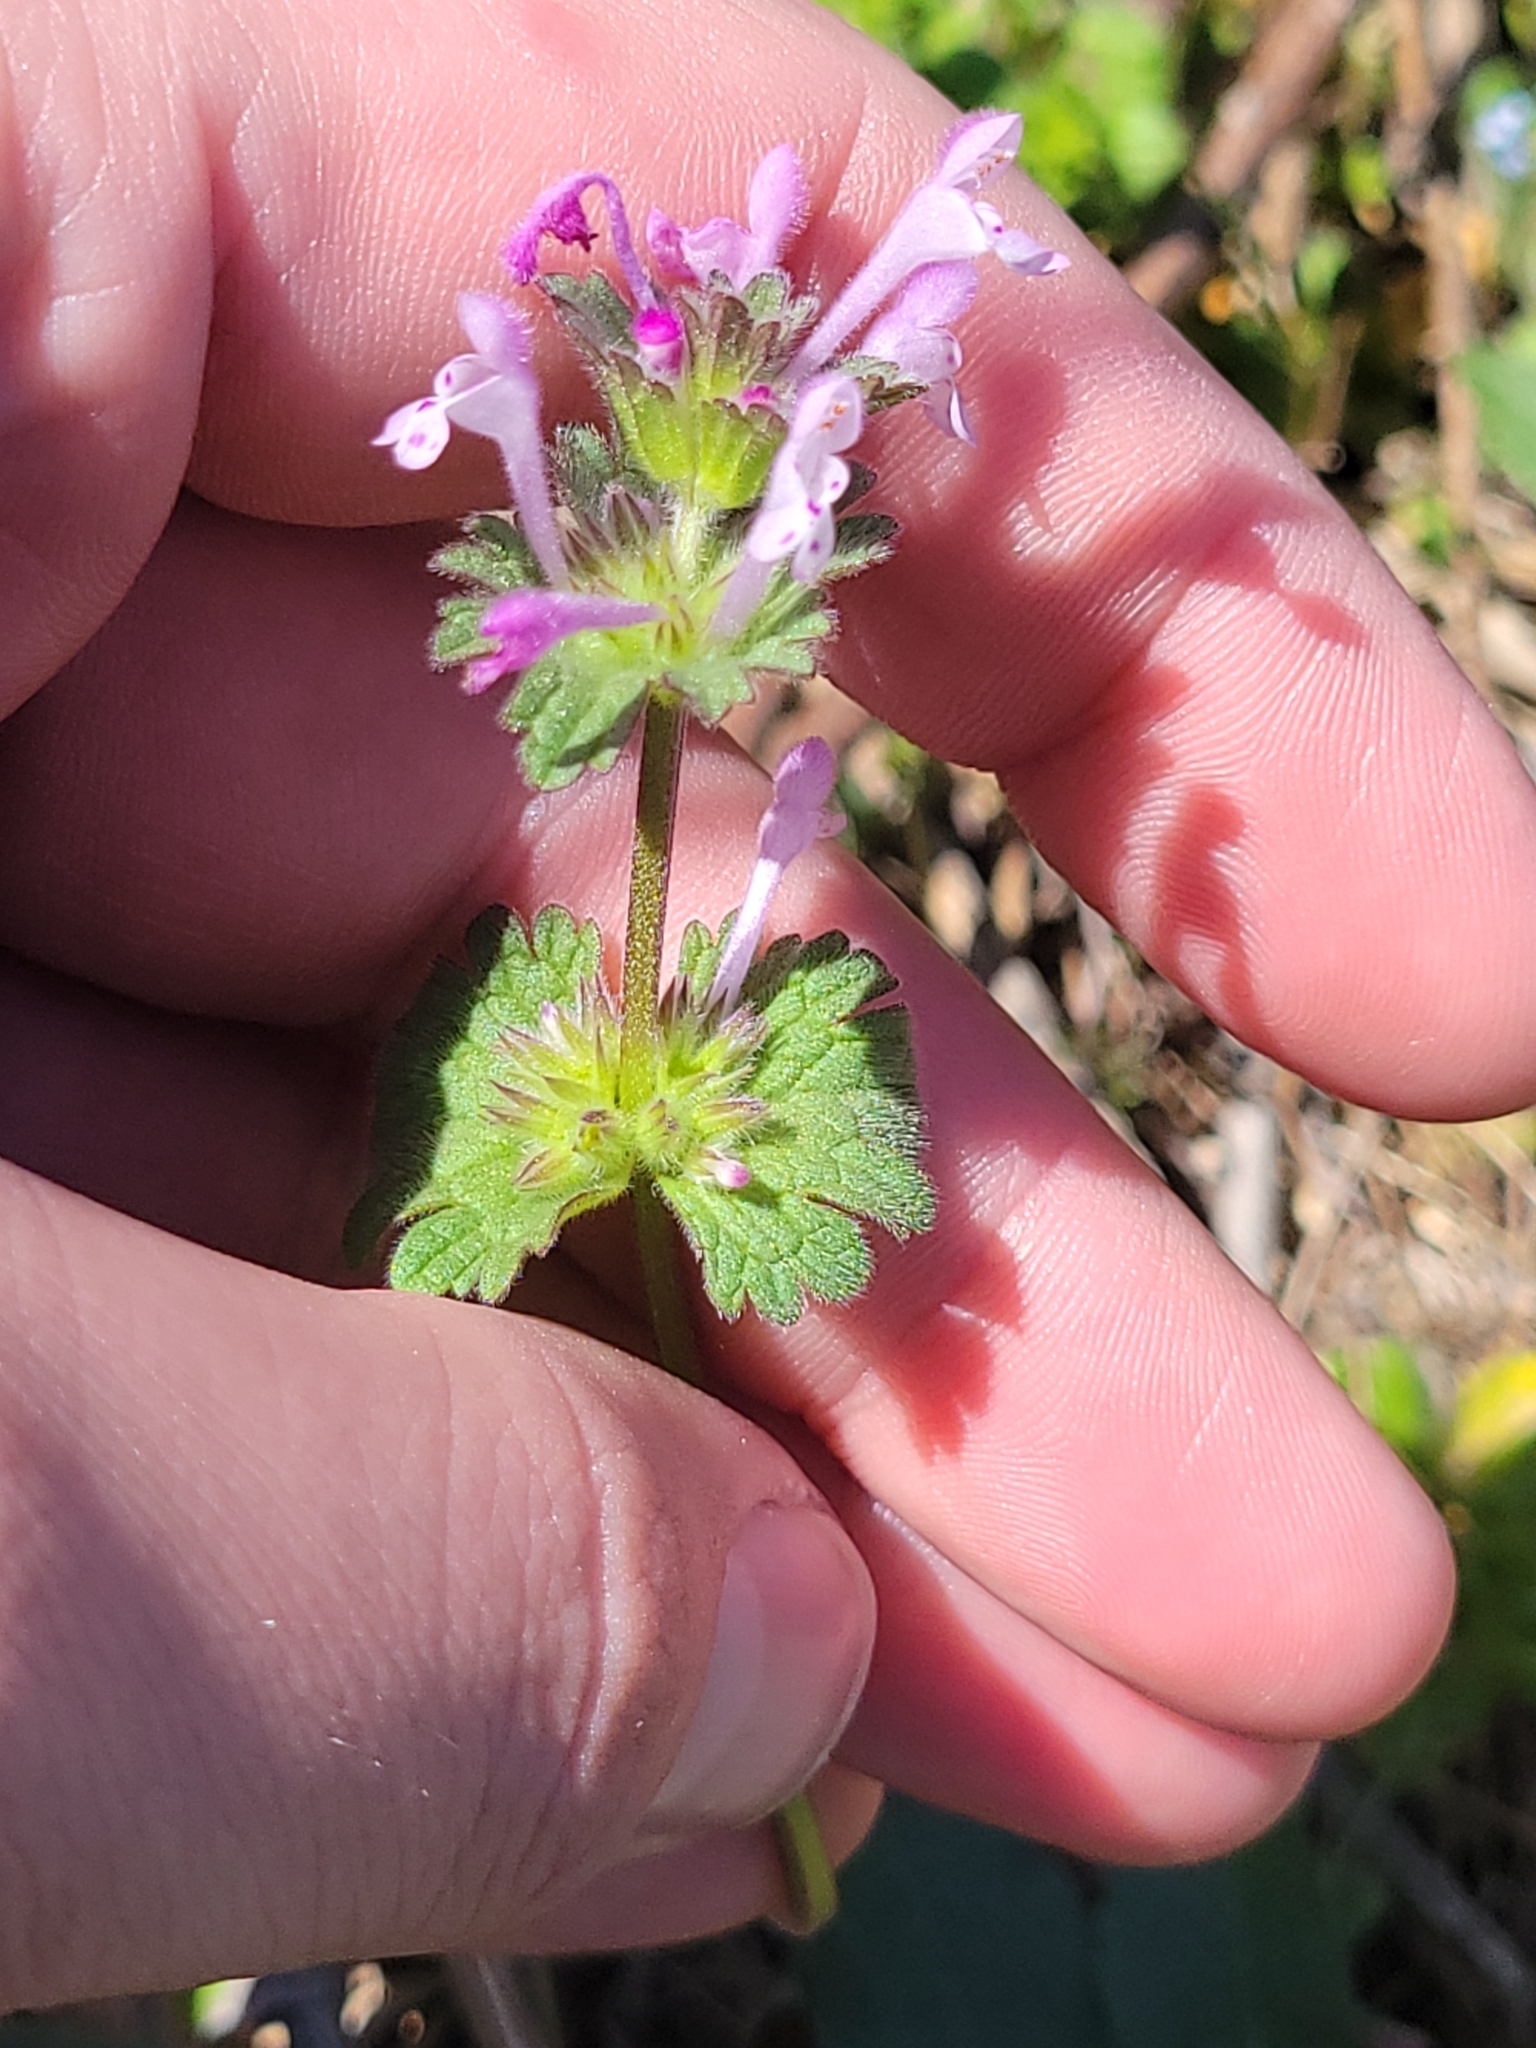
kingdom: Plantae
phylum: Tracheophyta
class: Magnoliopsida
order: Lamiales
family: Lamiaceae
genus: Lamium
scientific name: Lamium amplexicaule
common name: Henbit dead-nettle
